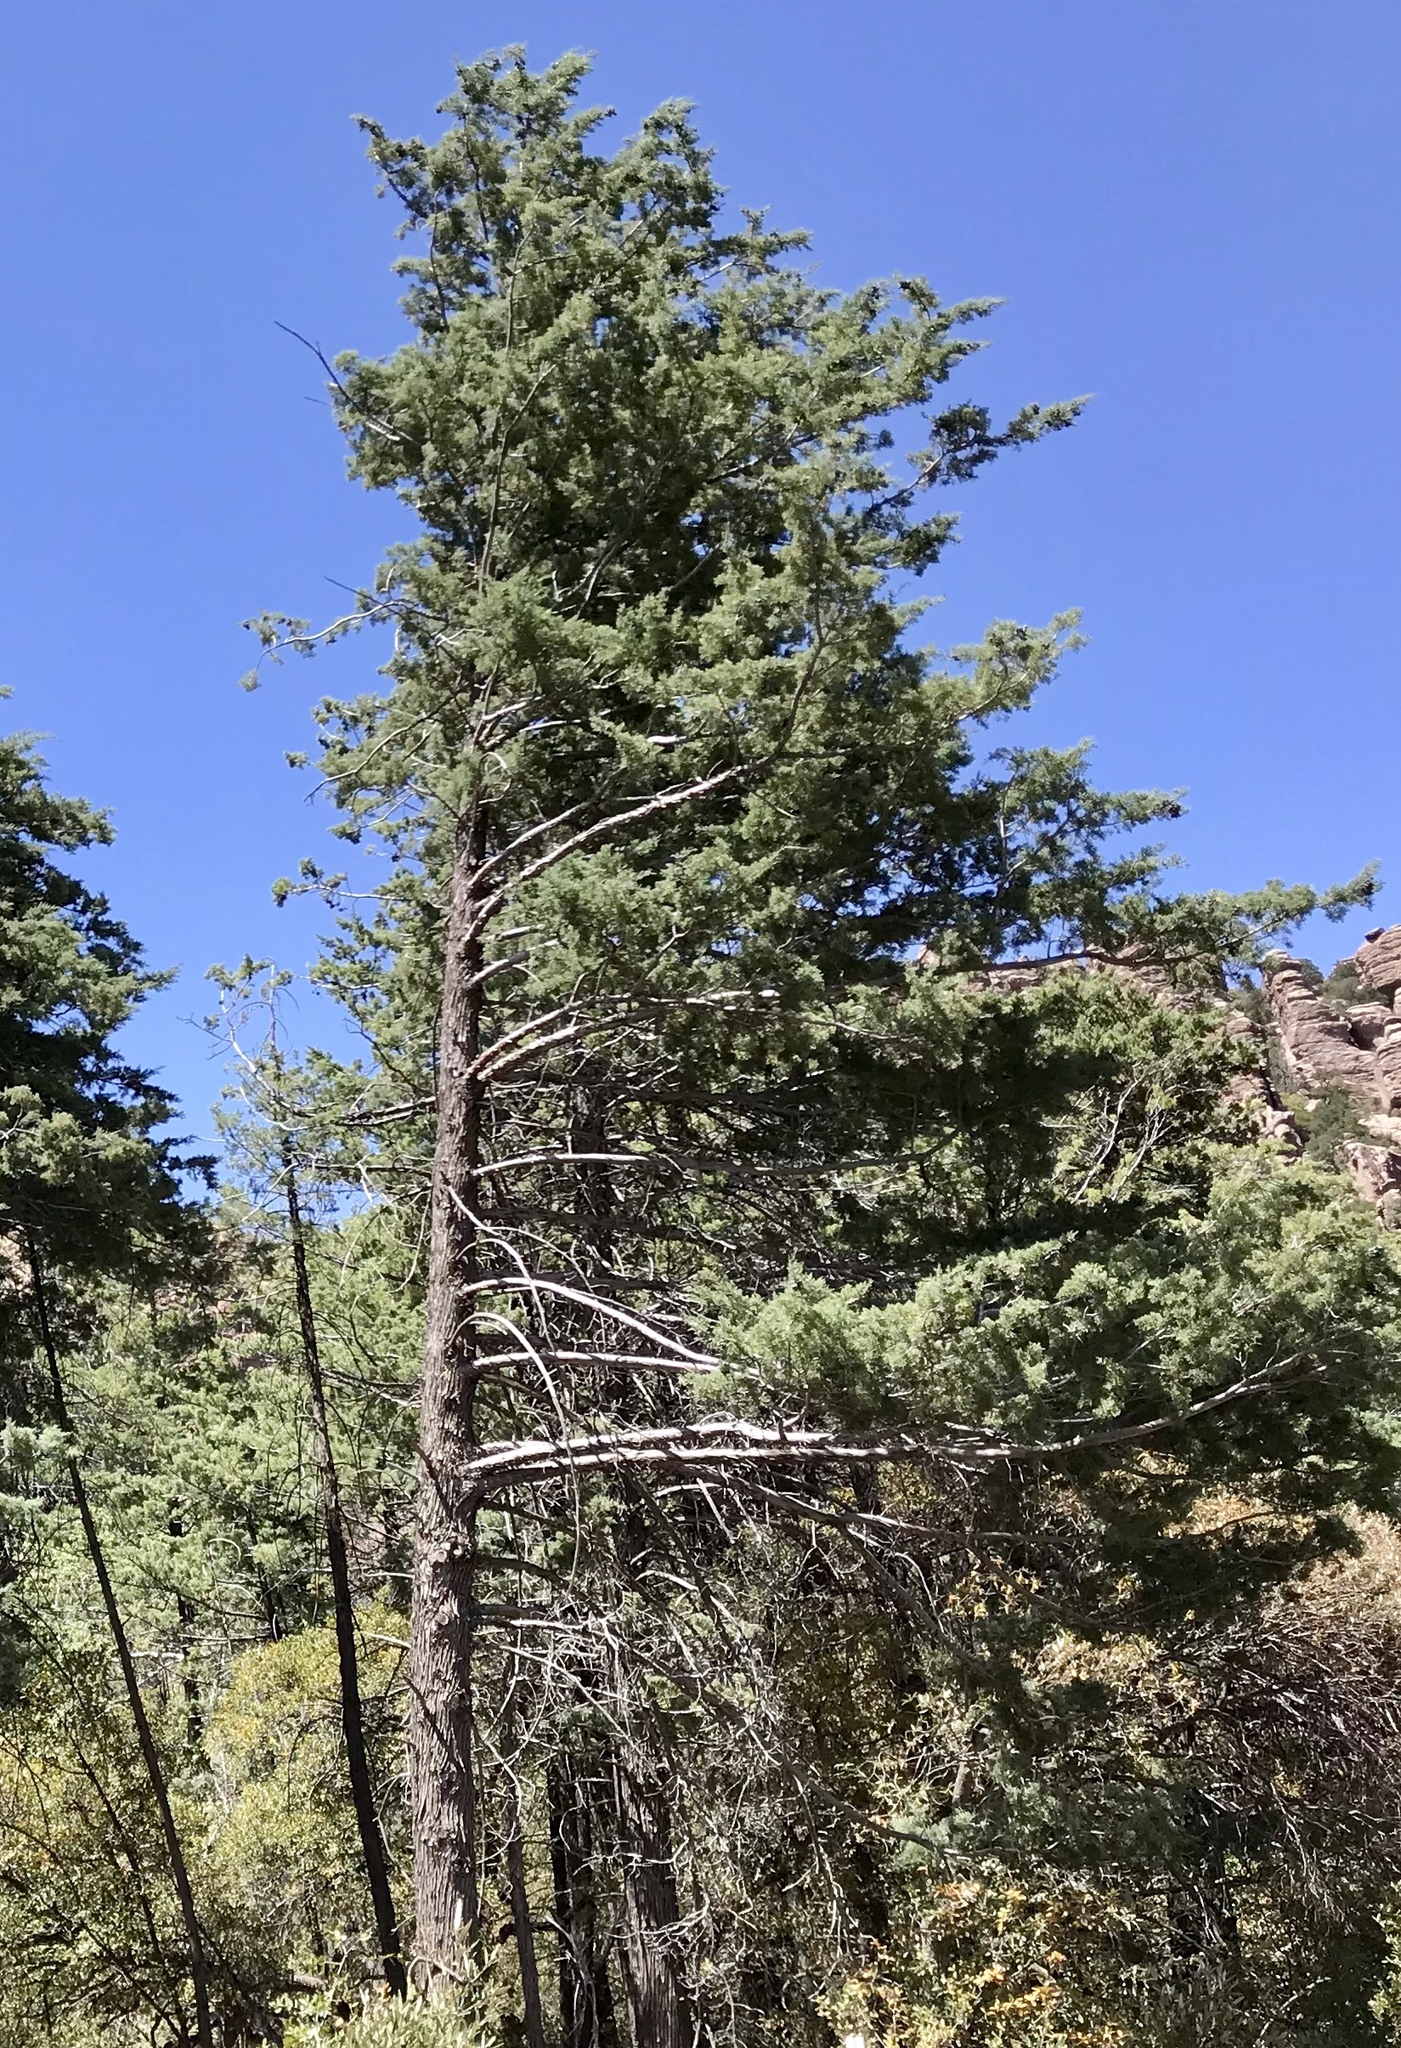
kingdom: Plantae
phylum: Tracheophyta
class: Pinopsida
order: Pinales
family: Cupressaceae
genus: Cupressus
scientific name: Cupressus arizonica
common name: Arizona cypress
